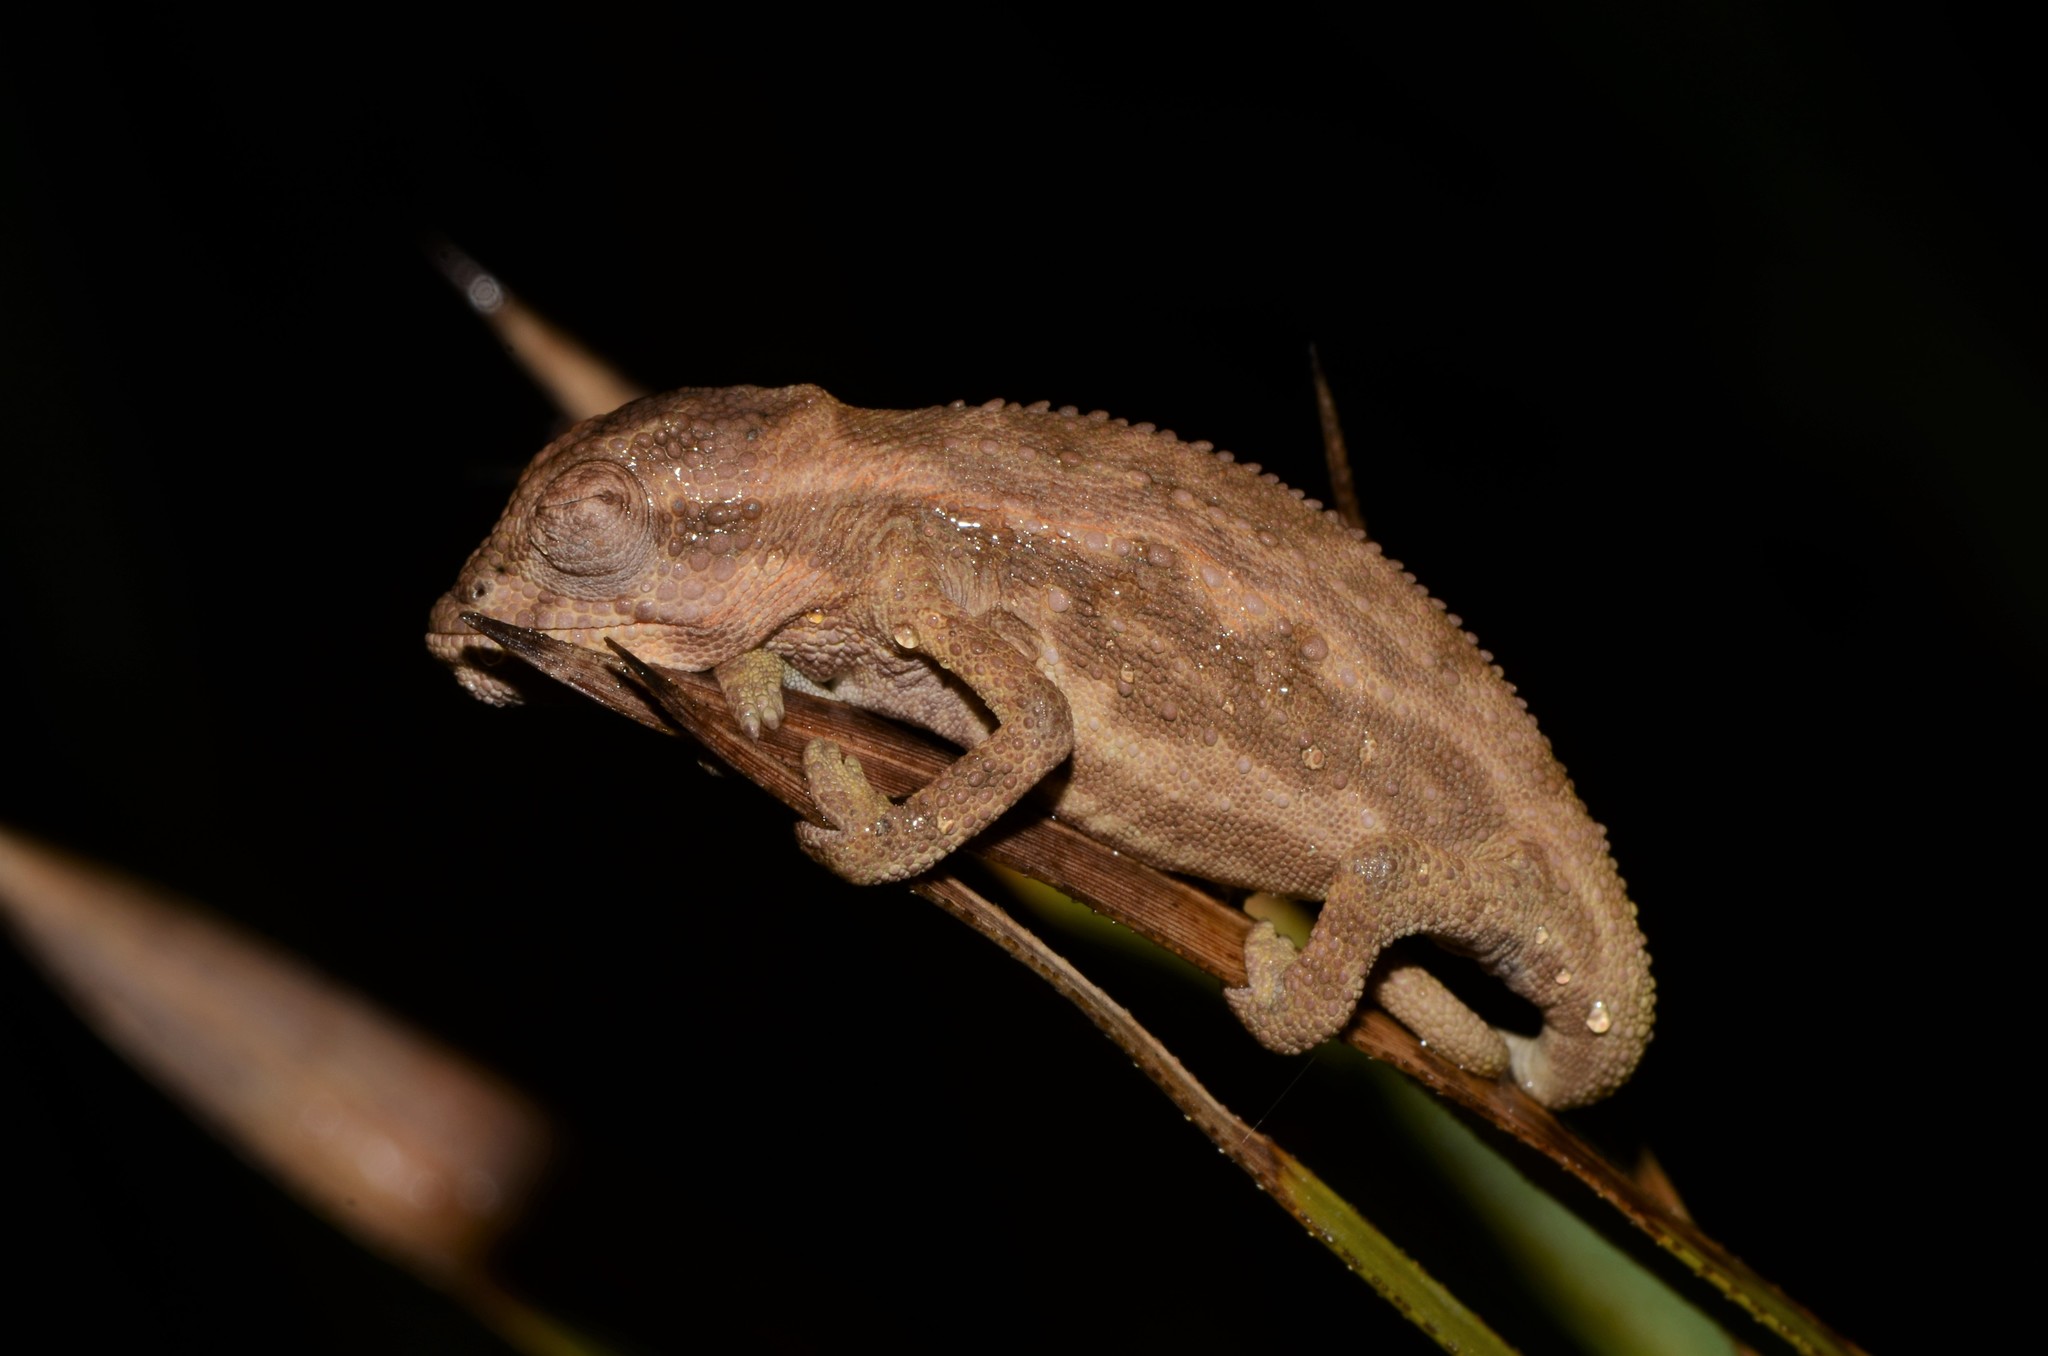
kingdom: Animalia
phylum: Chordata
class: Squamata
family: Chamaeleonidae
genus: Bradypodion
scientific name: Bradypodion pumilum
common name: Cape dwarf chameleon
